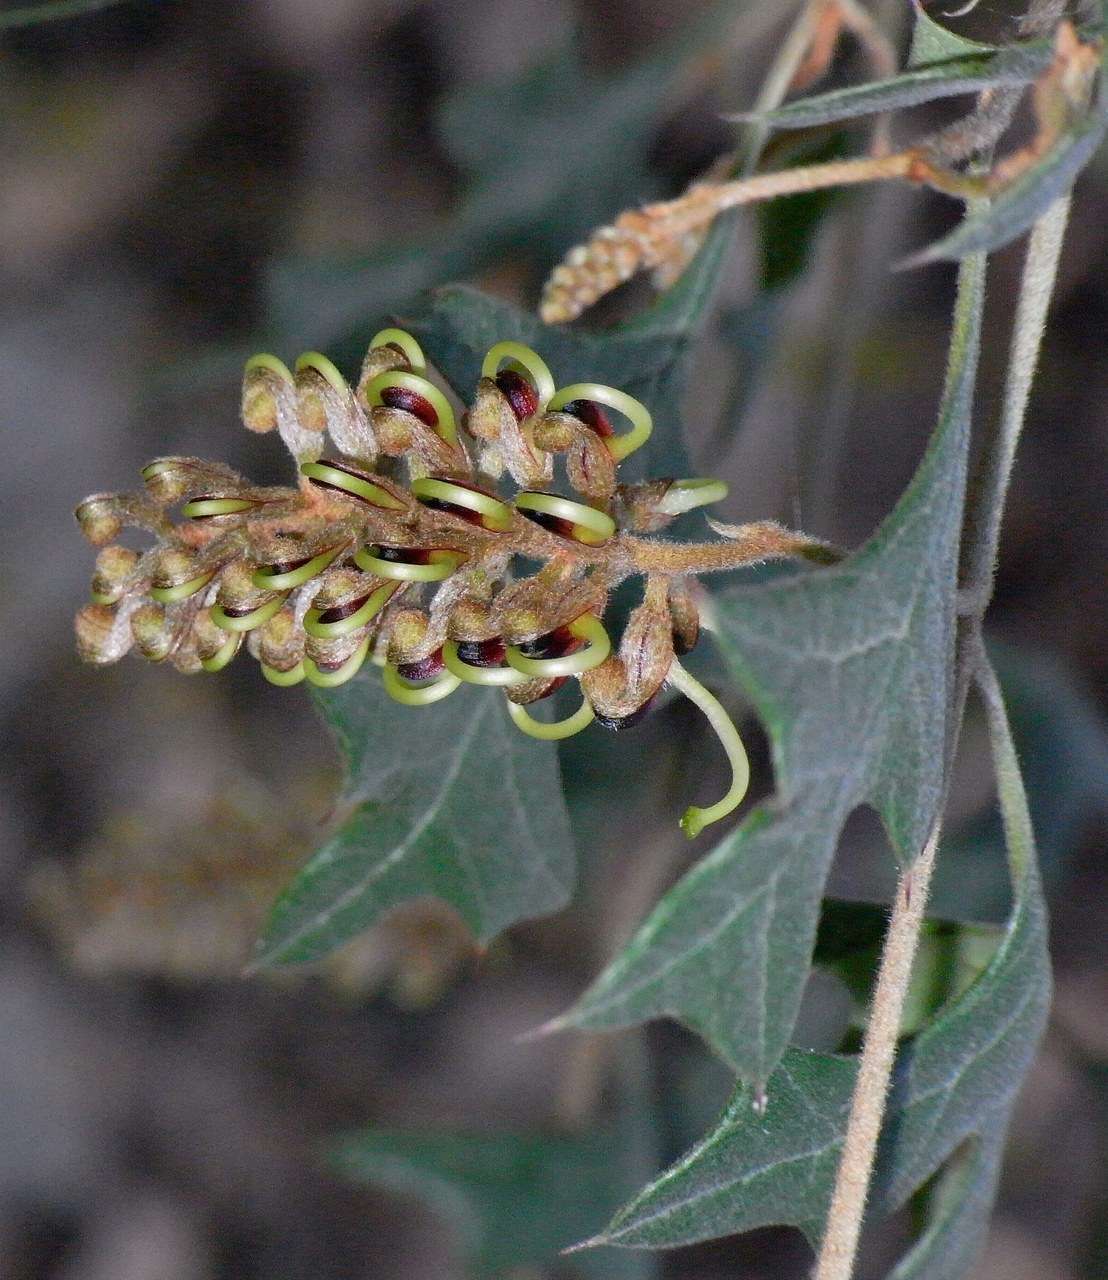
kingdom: Plantae
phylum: Tracheophyta
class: Magnoliopsida
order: Proteales
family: Proteaceae
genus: Grevillea
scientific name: Grevillea dryophylla
